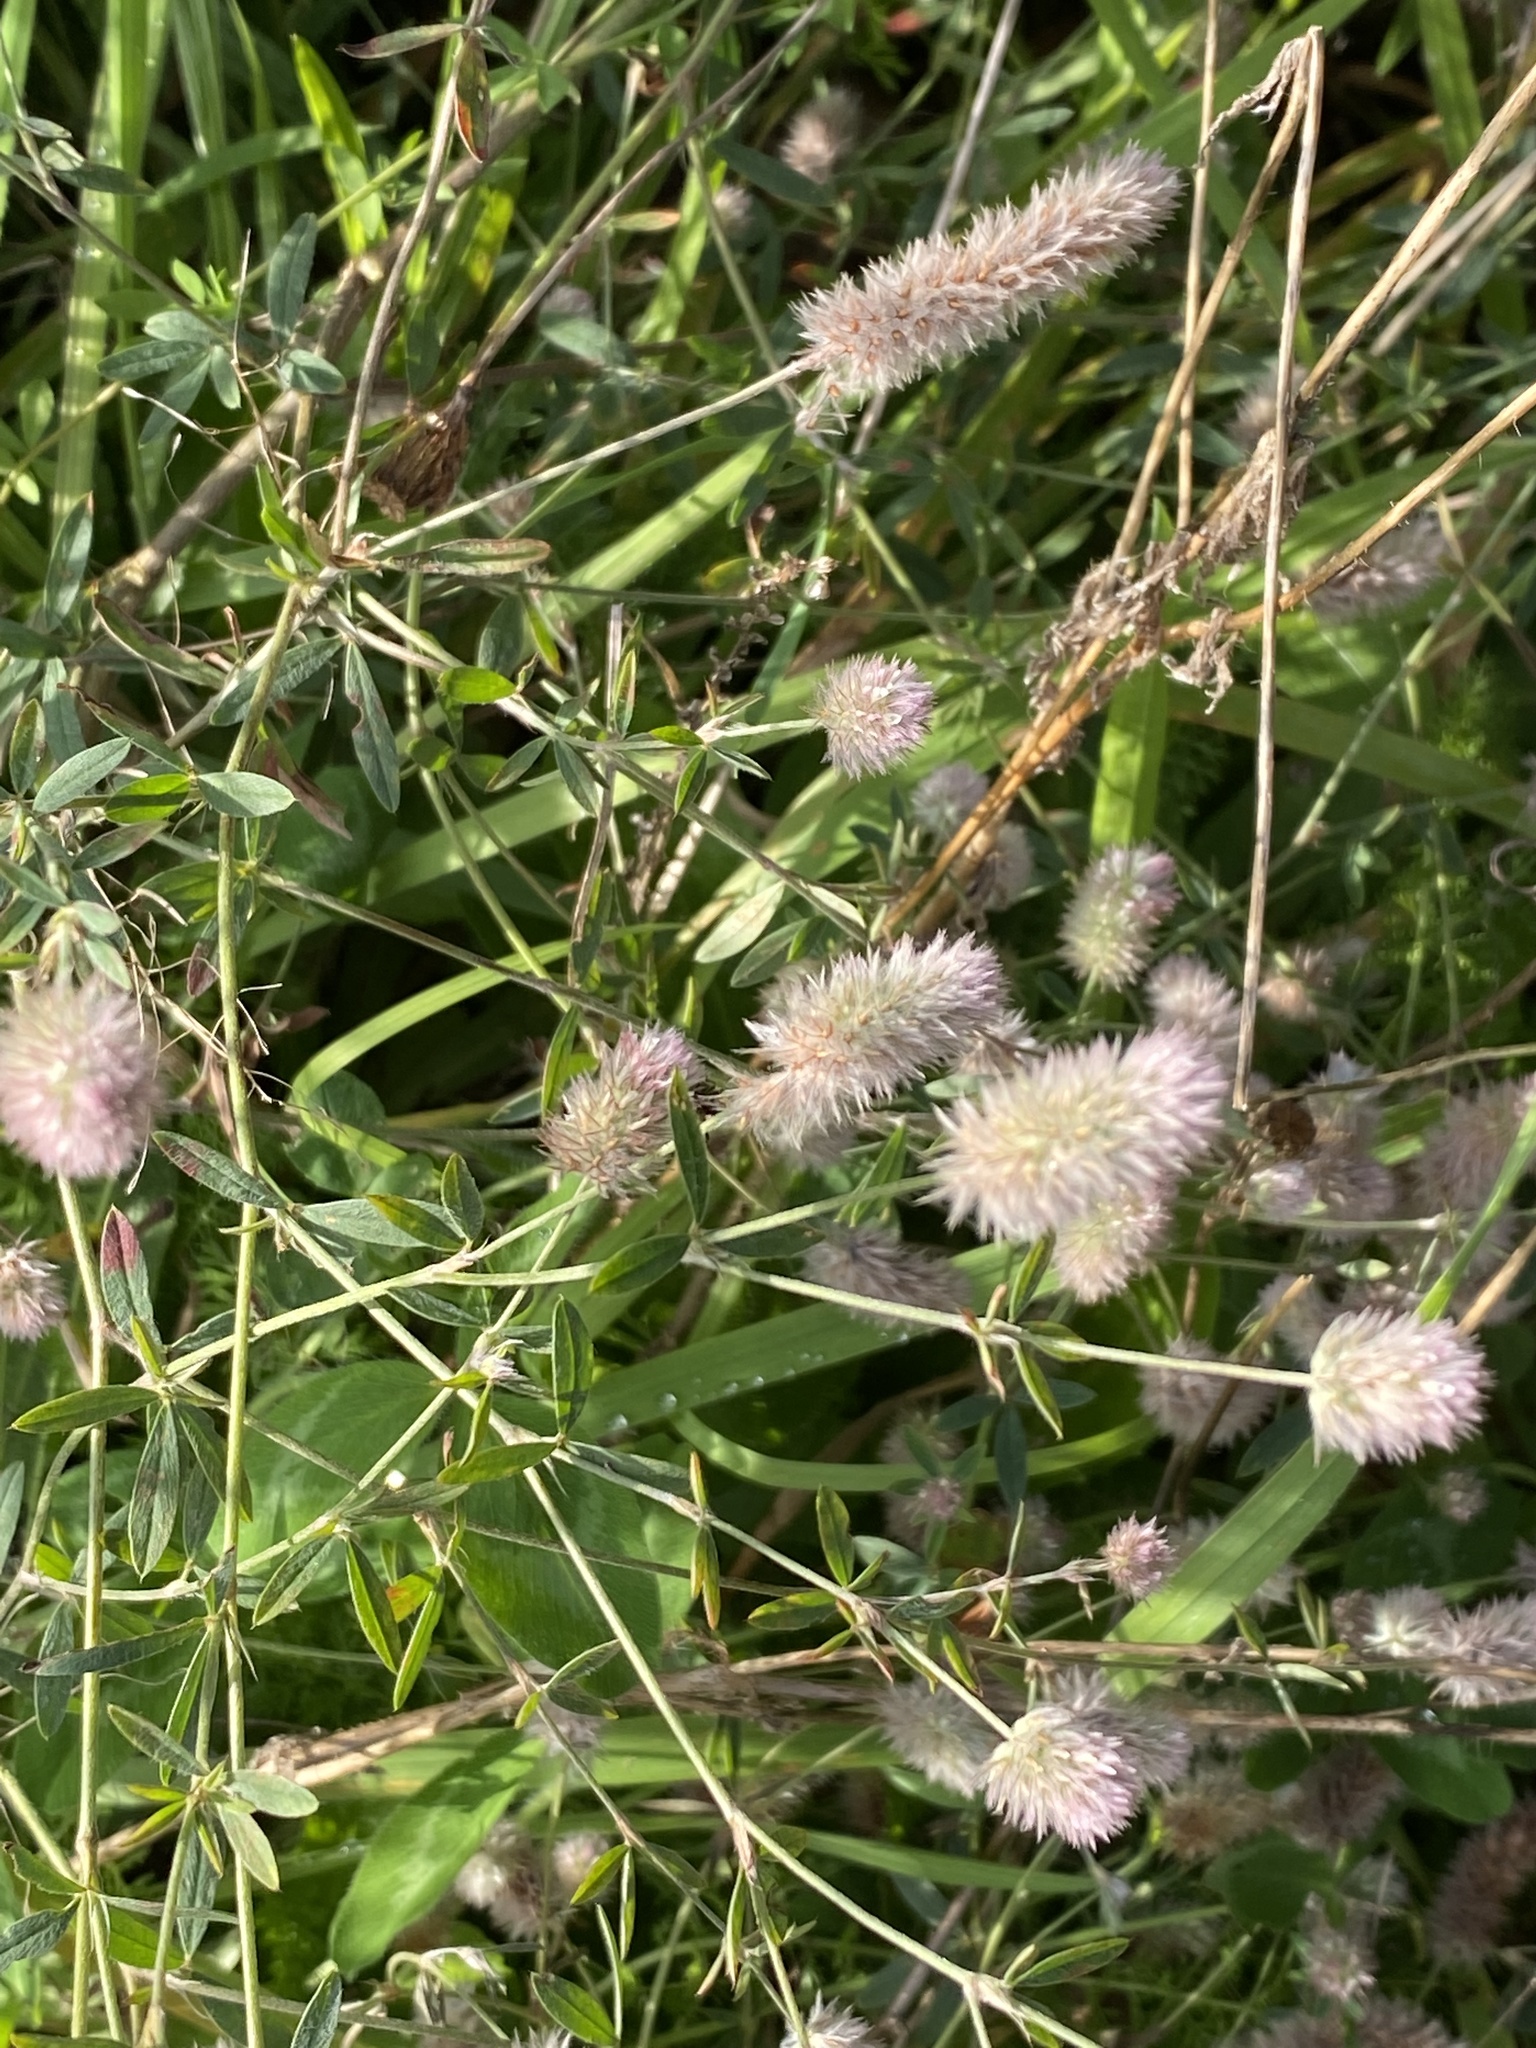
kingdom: Plantae
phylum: Tracheophyta
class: Magnoliopsida
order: Fabales
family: Fabaceae
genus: Trifolium
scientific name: Trifolium arvense
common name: Hare's-foot clover
